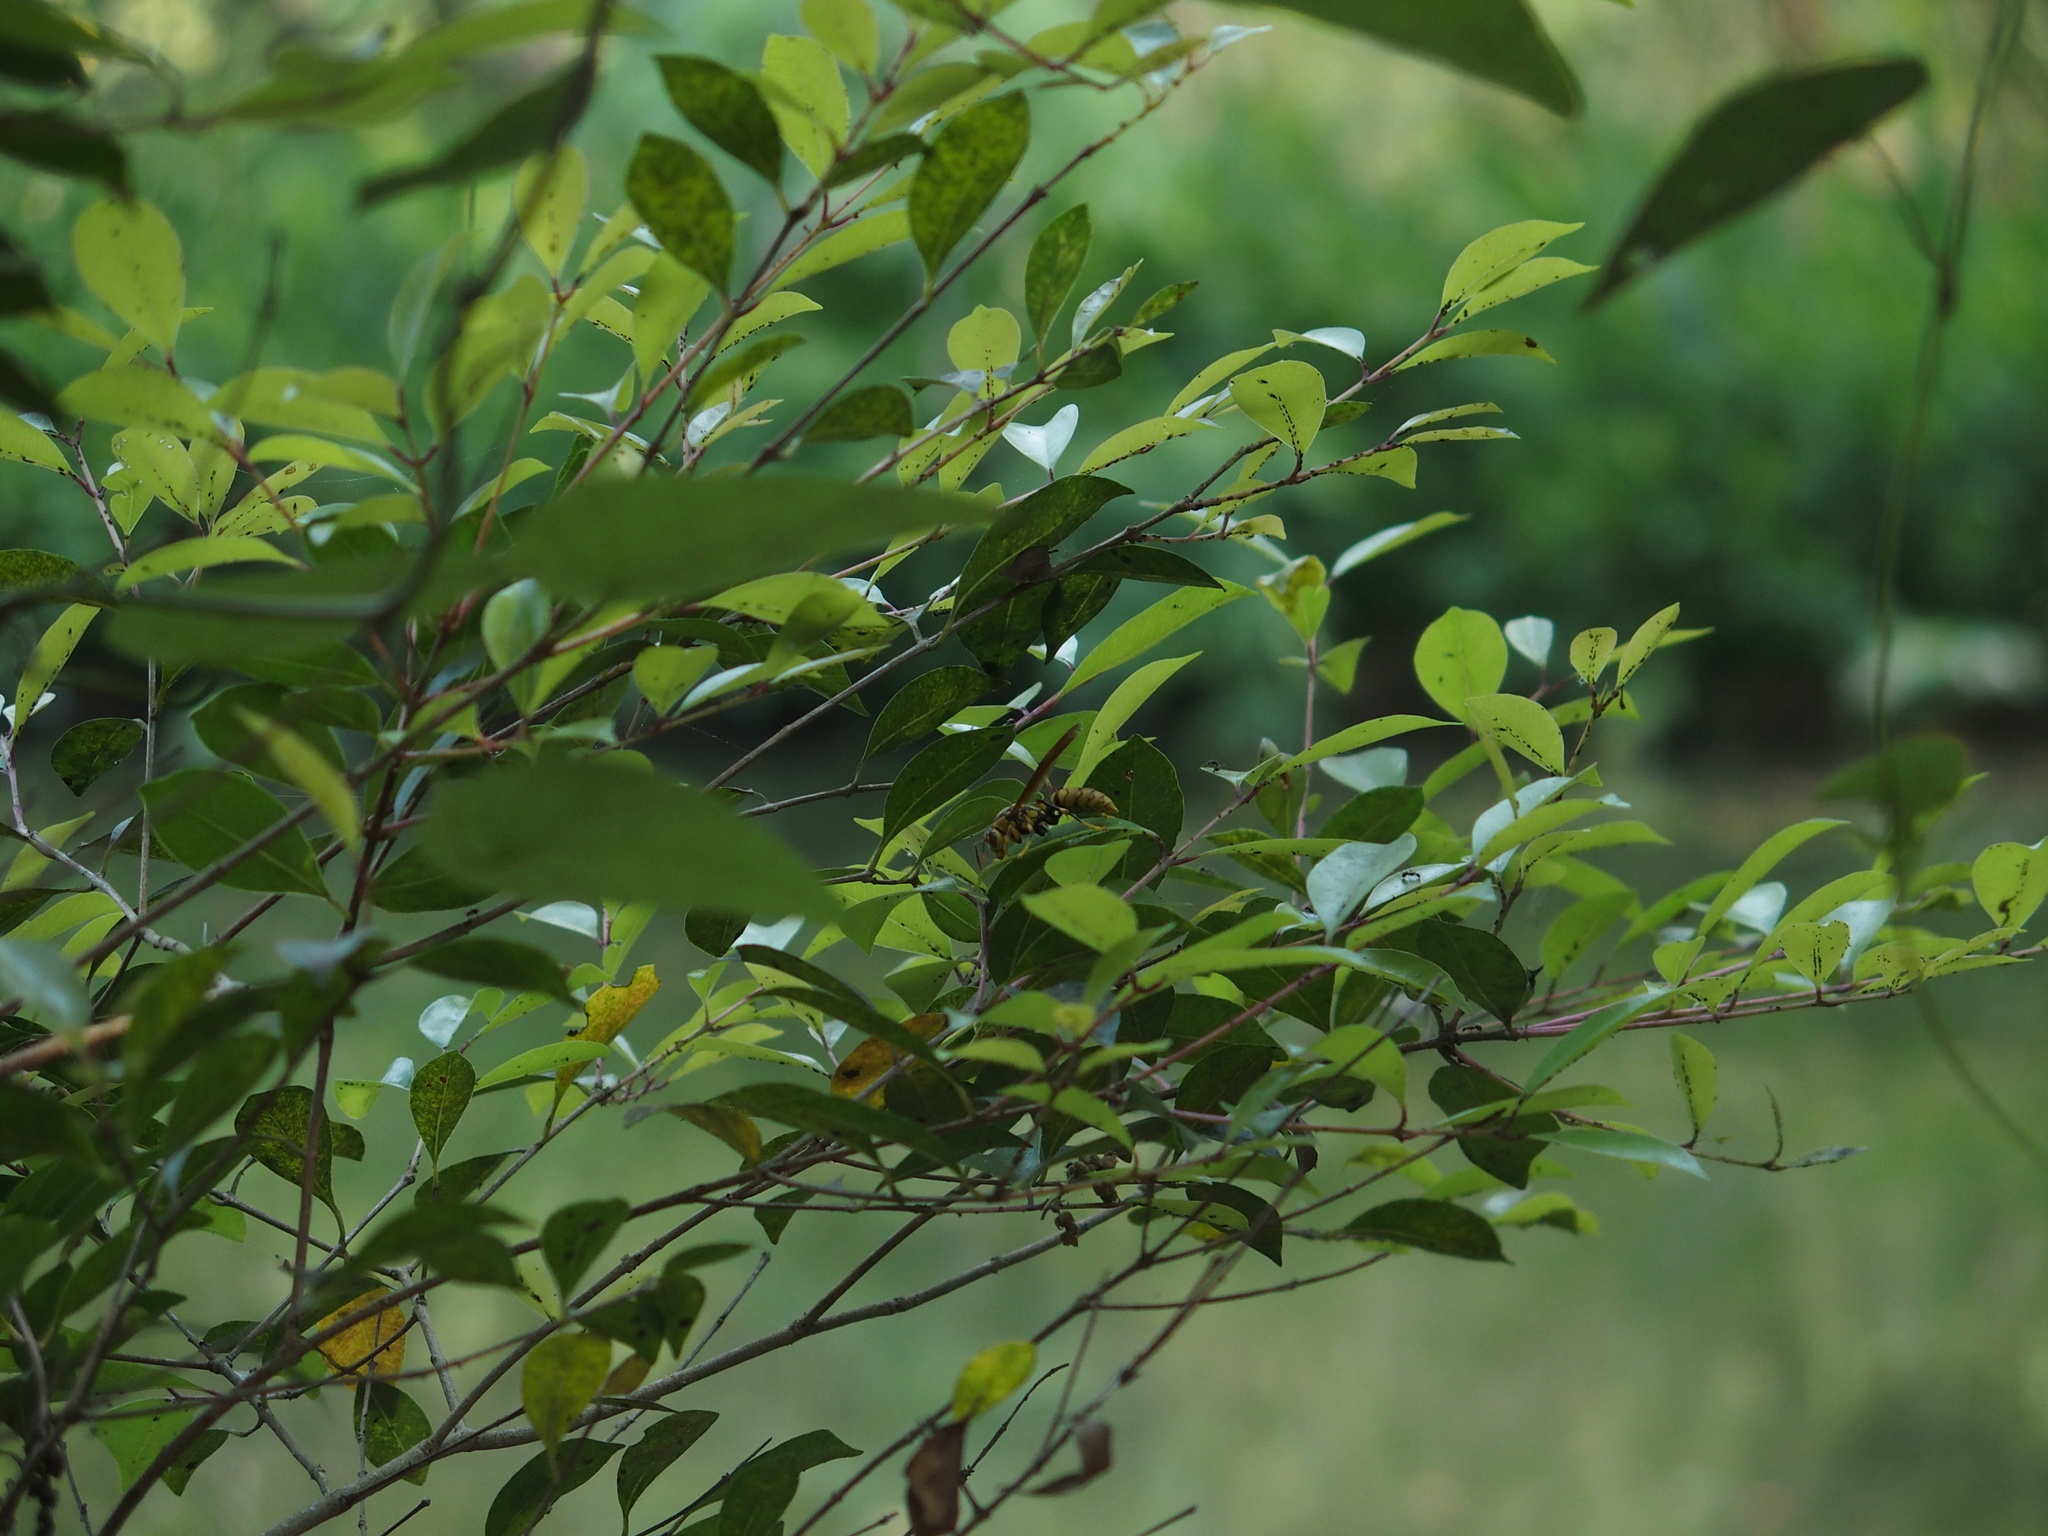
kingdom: Animalia
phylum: Arthropoda
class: Insecta
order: Hymenoptera
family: Eumenidae
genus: Polistes
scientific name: Polistes rothneyi
